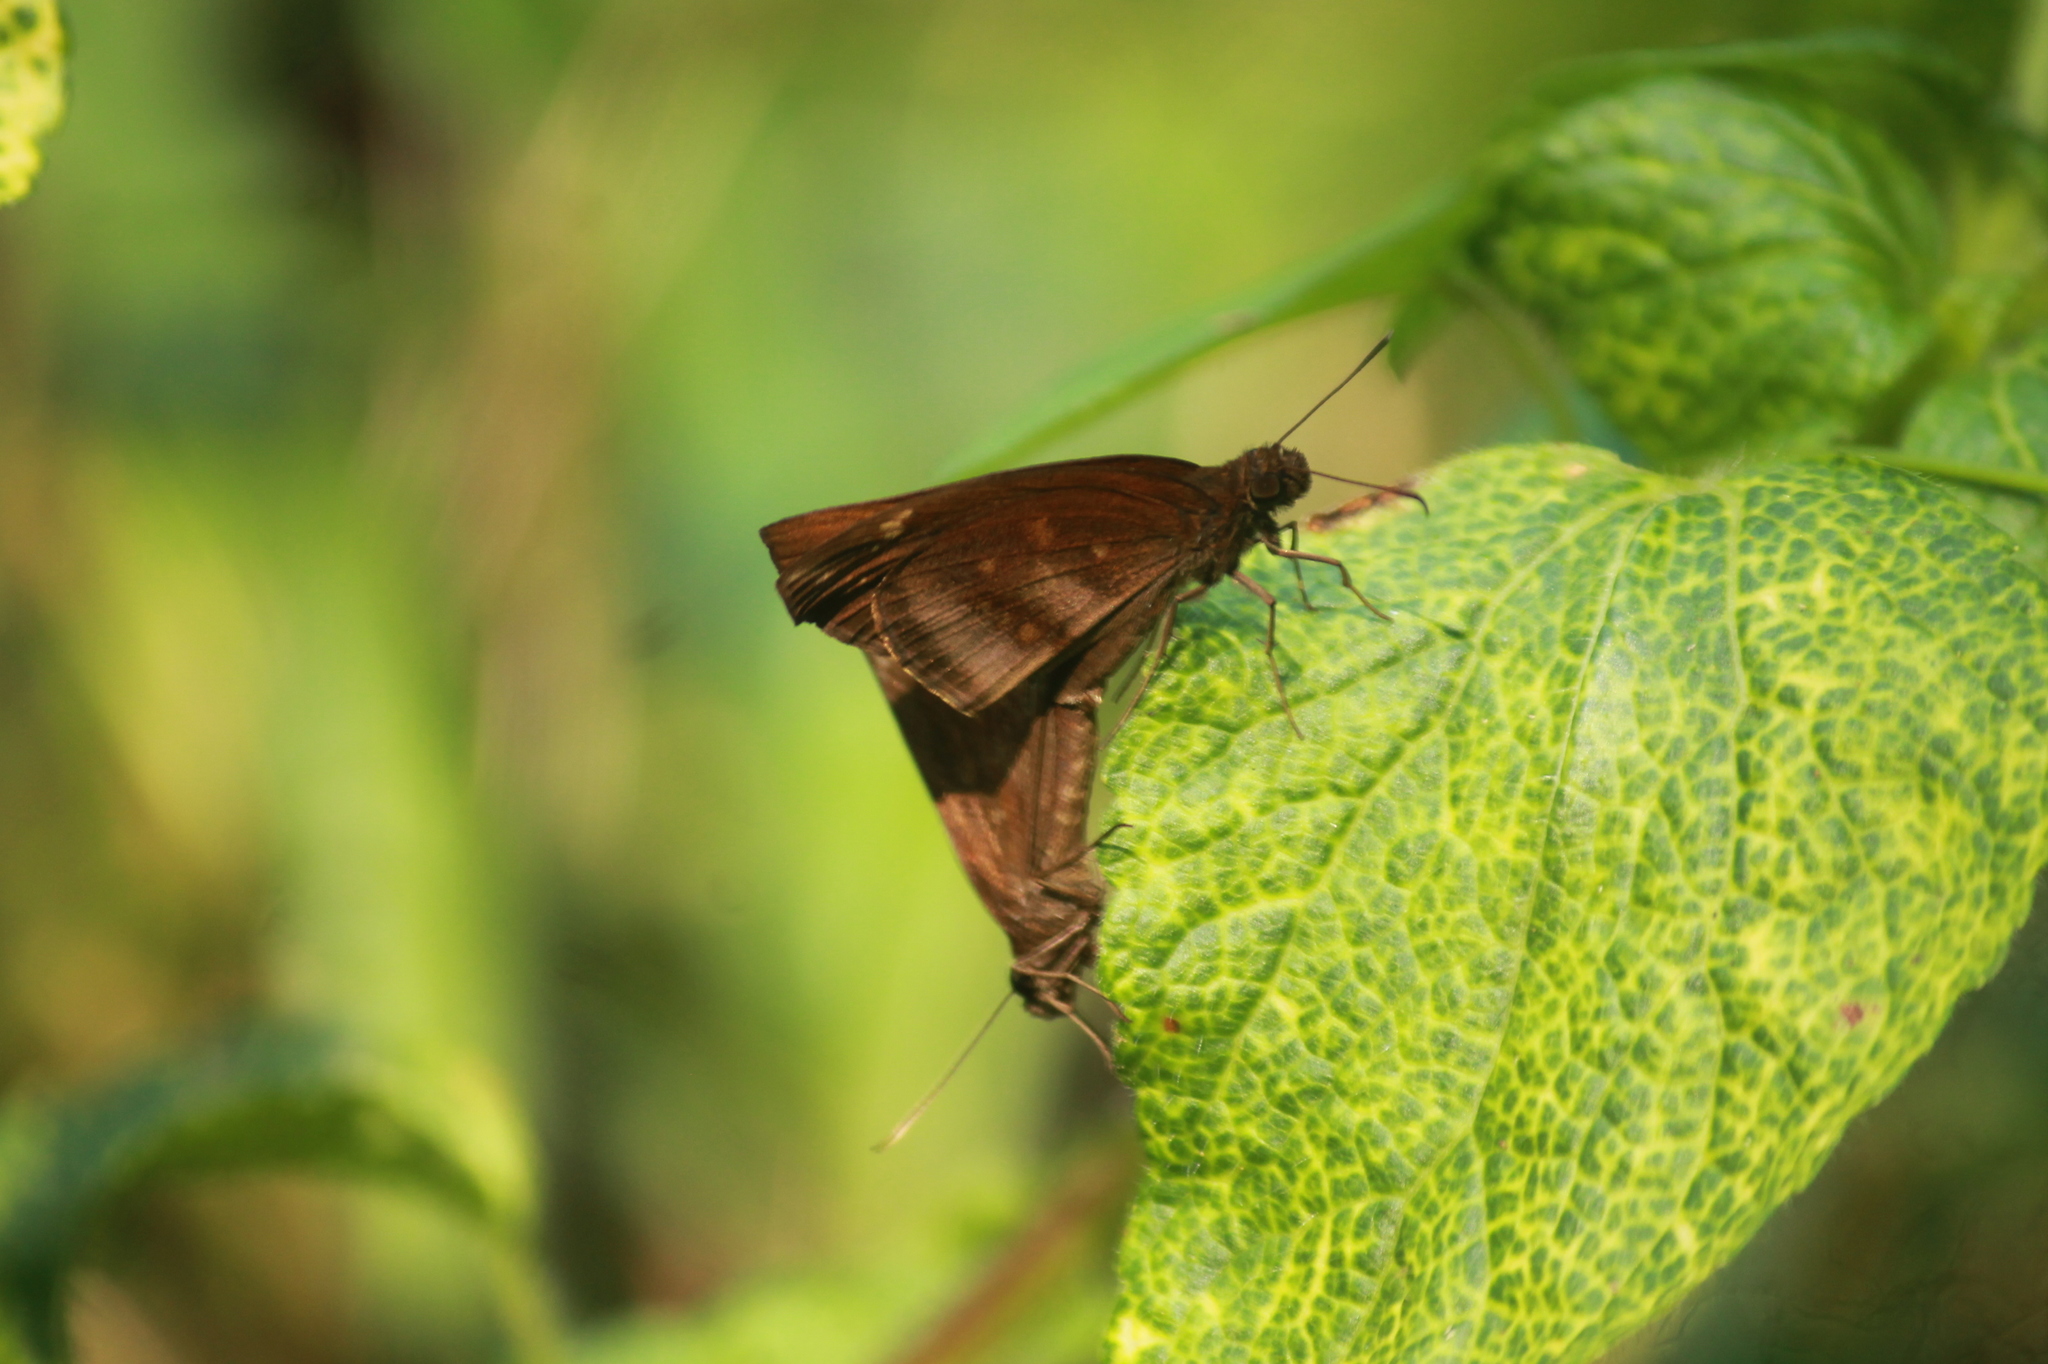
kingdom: Animalia
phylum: Arthropoda
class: Insecta
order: Lepidoptera
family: Hesperiidae
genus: Psolos
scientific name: Psolos fuligo
